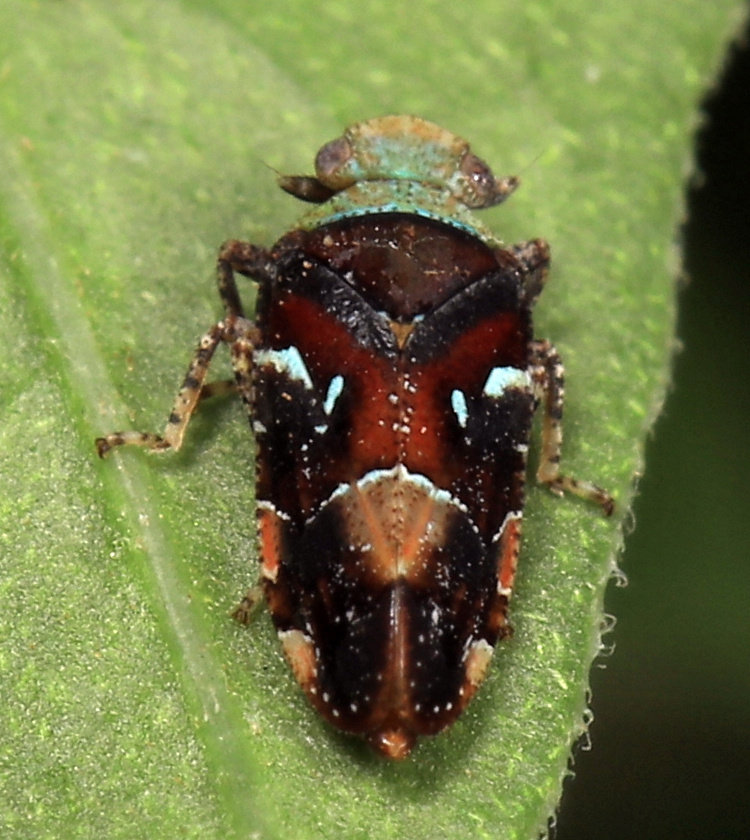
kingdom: Animalia
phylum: Arthropoda
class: Insecta
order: Hemiptera
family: Tettigometridae
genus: Nototettigometra
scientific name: Nototettigometra patruelis
